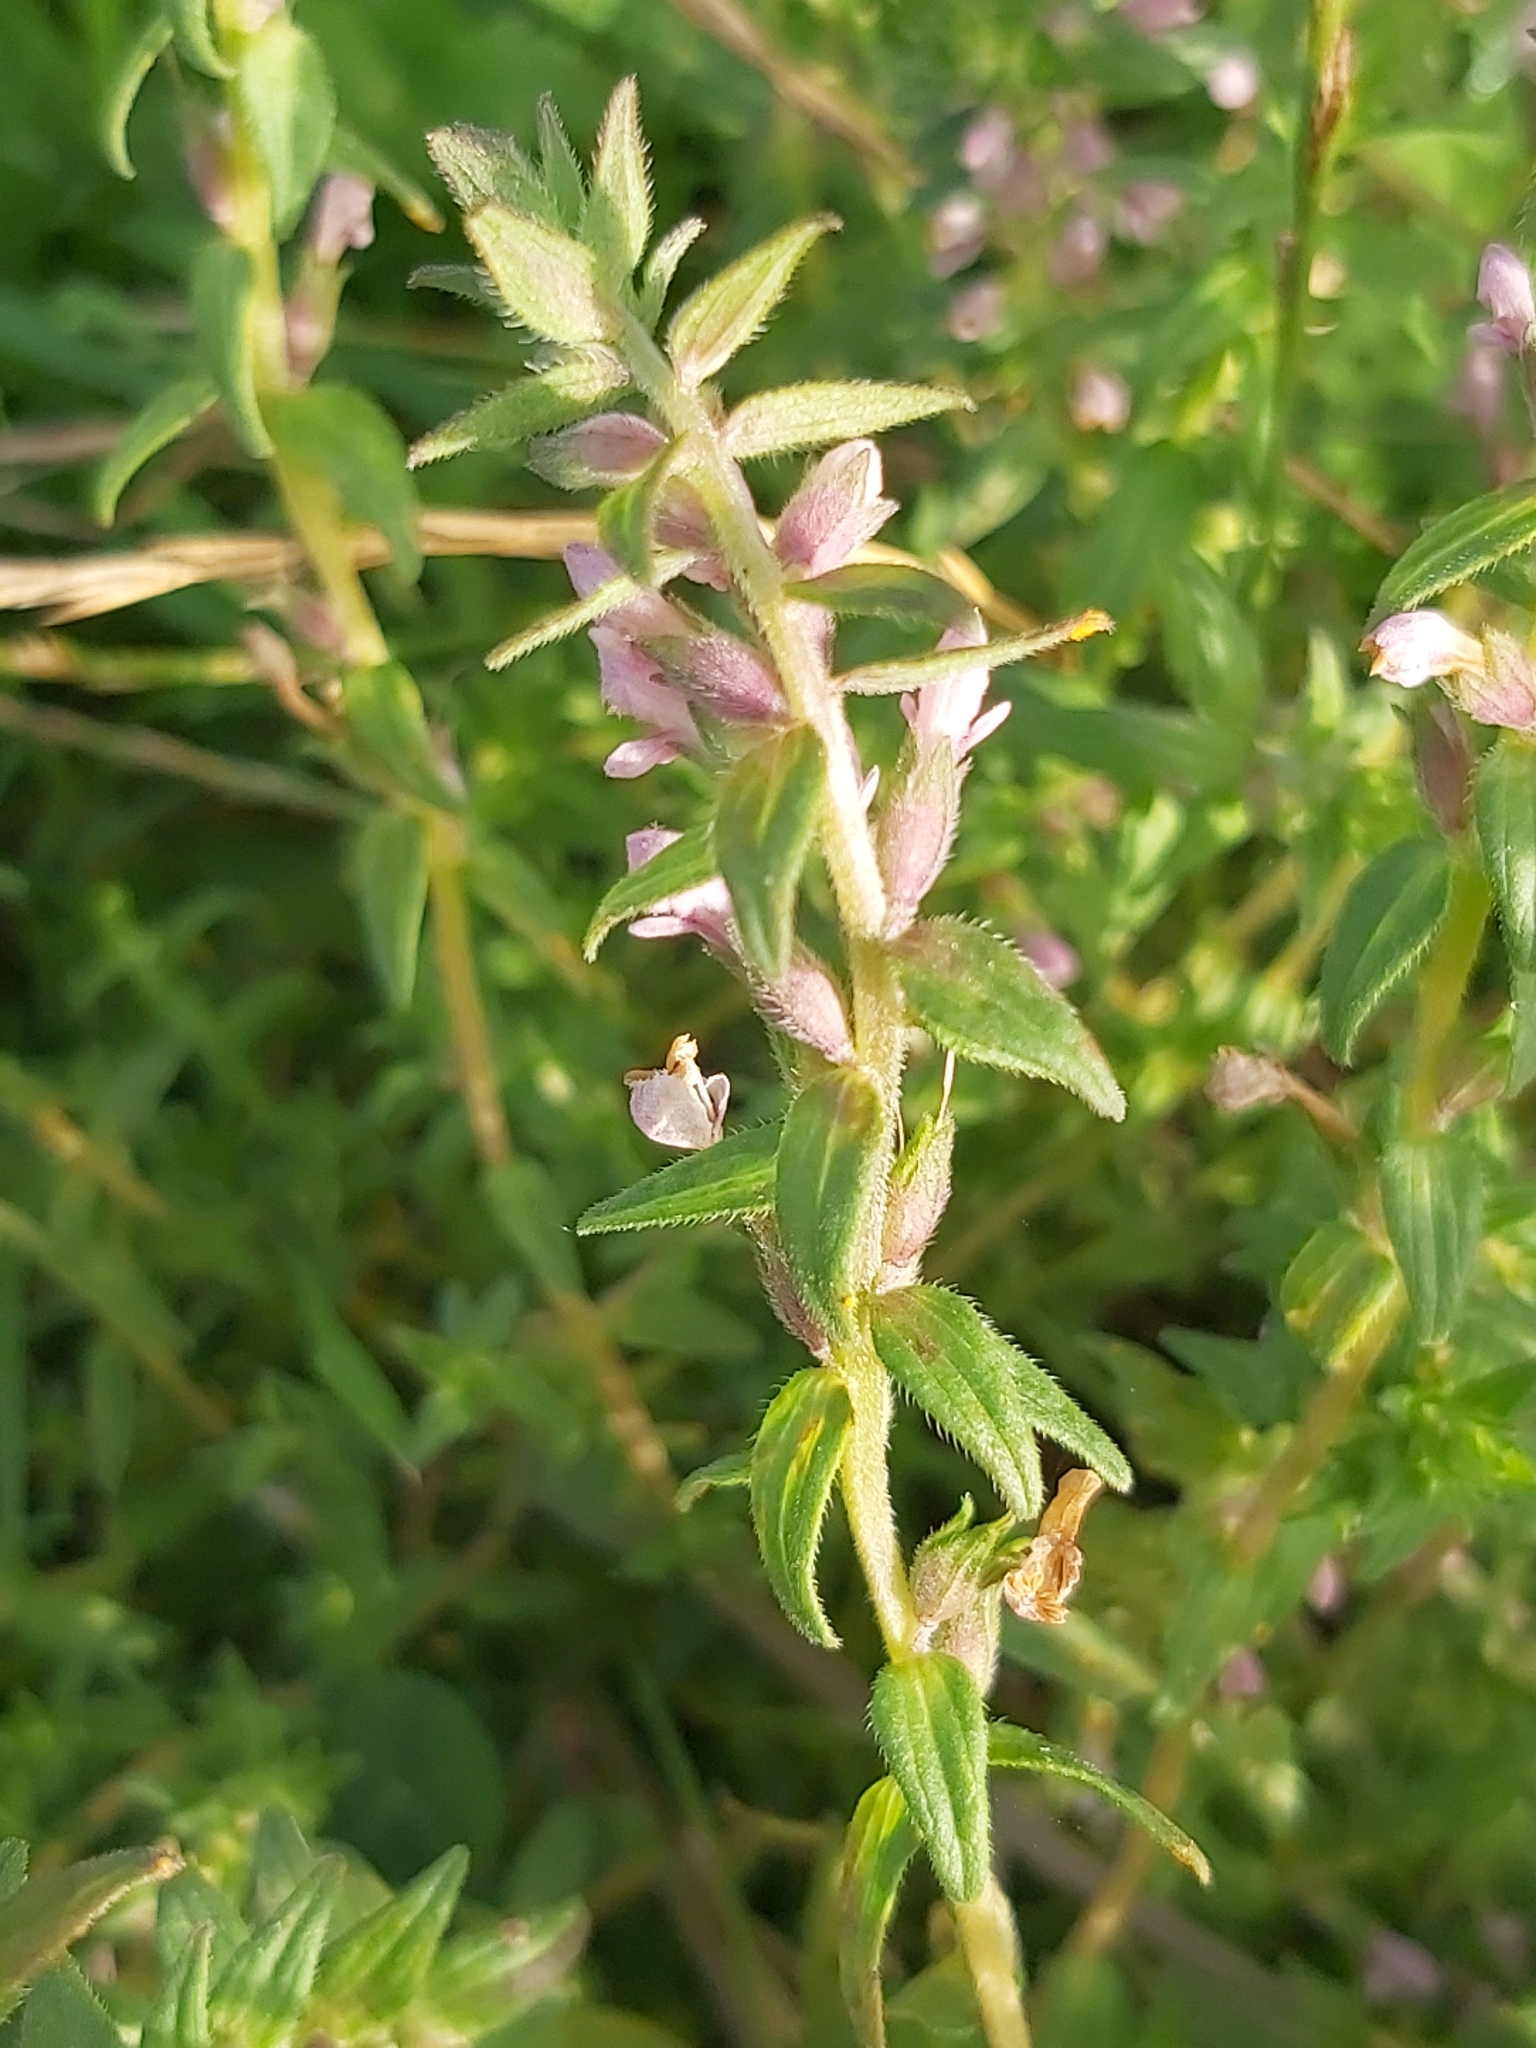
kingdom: Plantae
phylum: Tracheophyta
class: Magnoliopsida
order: Lamiales
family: Orobanchaceae
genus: Odontites
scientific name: Odontites vulgaris
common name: Broomrape
